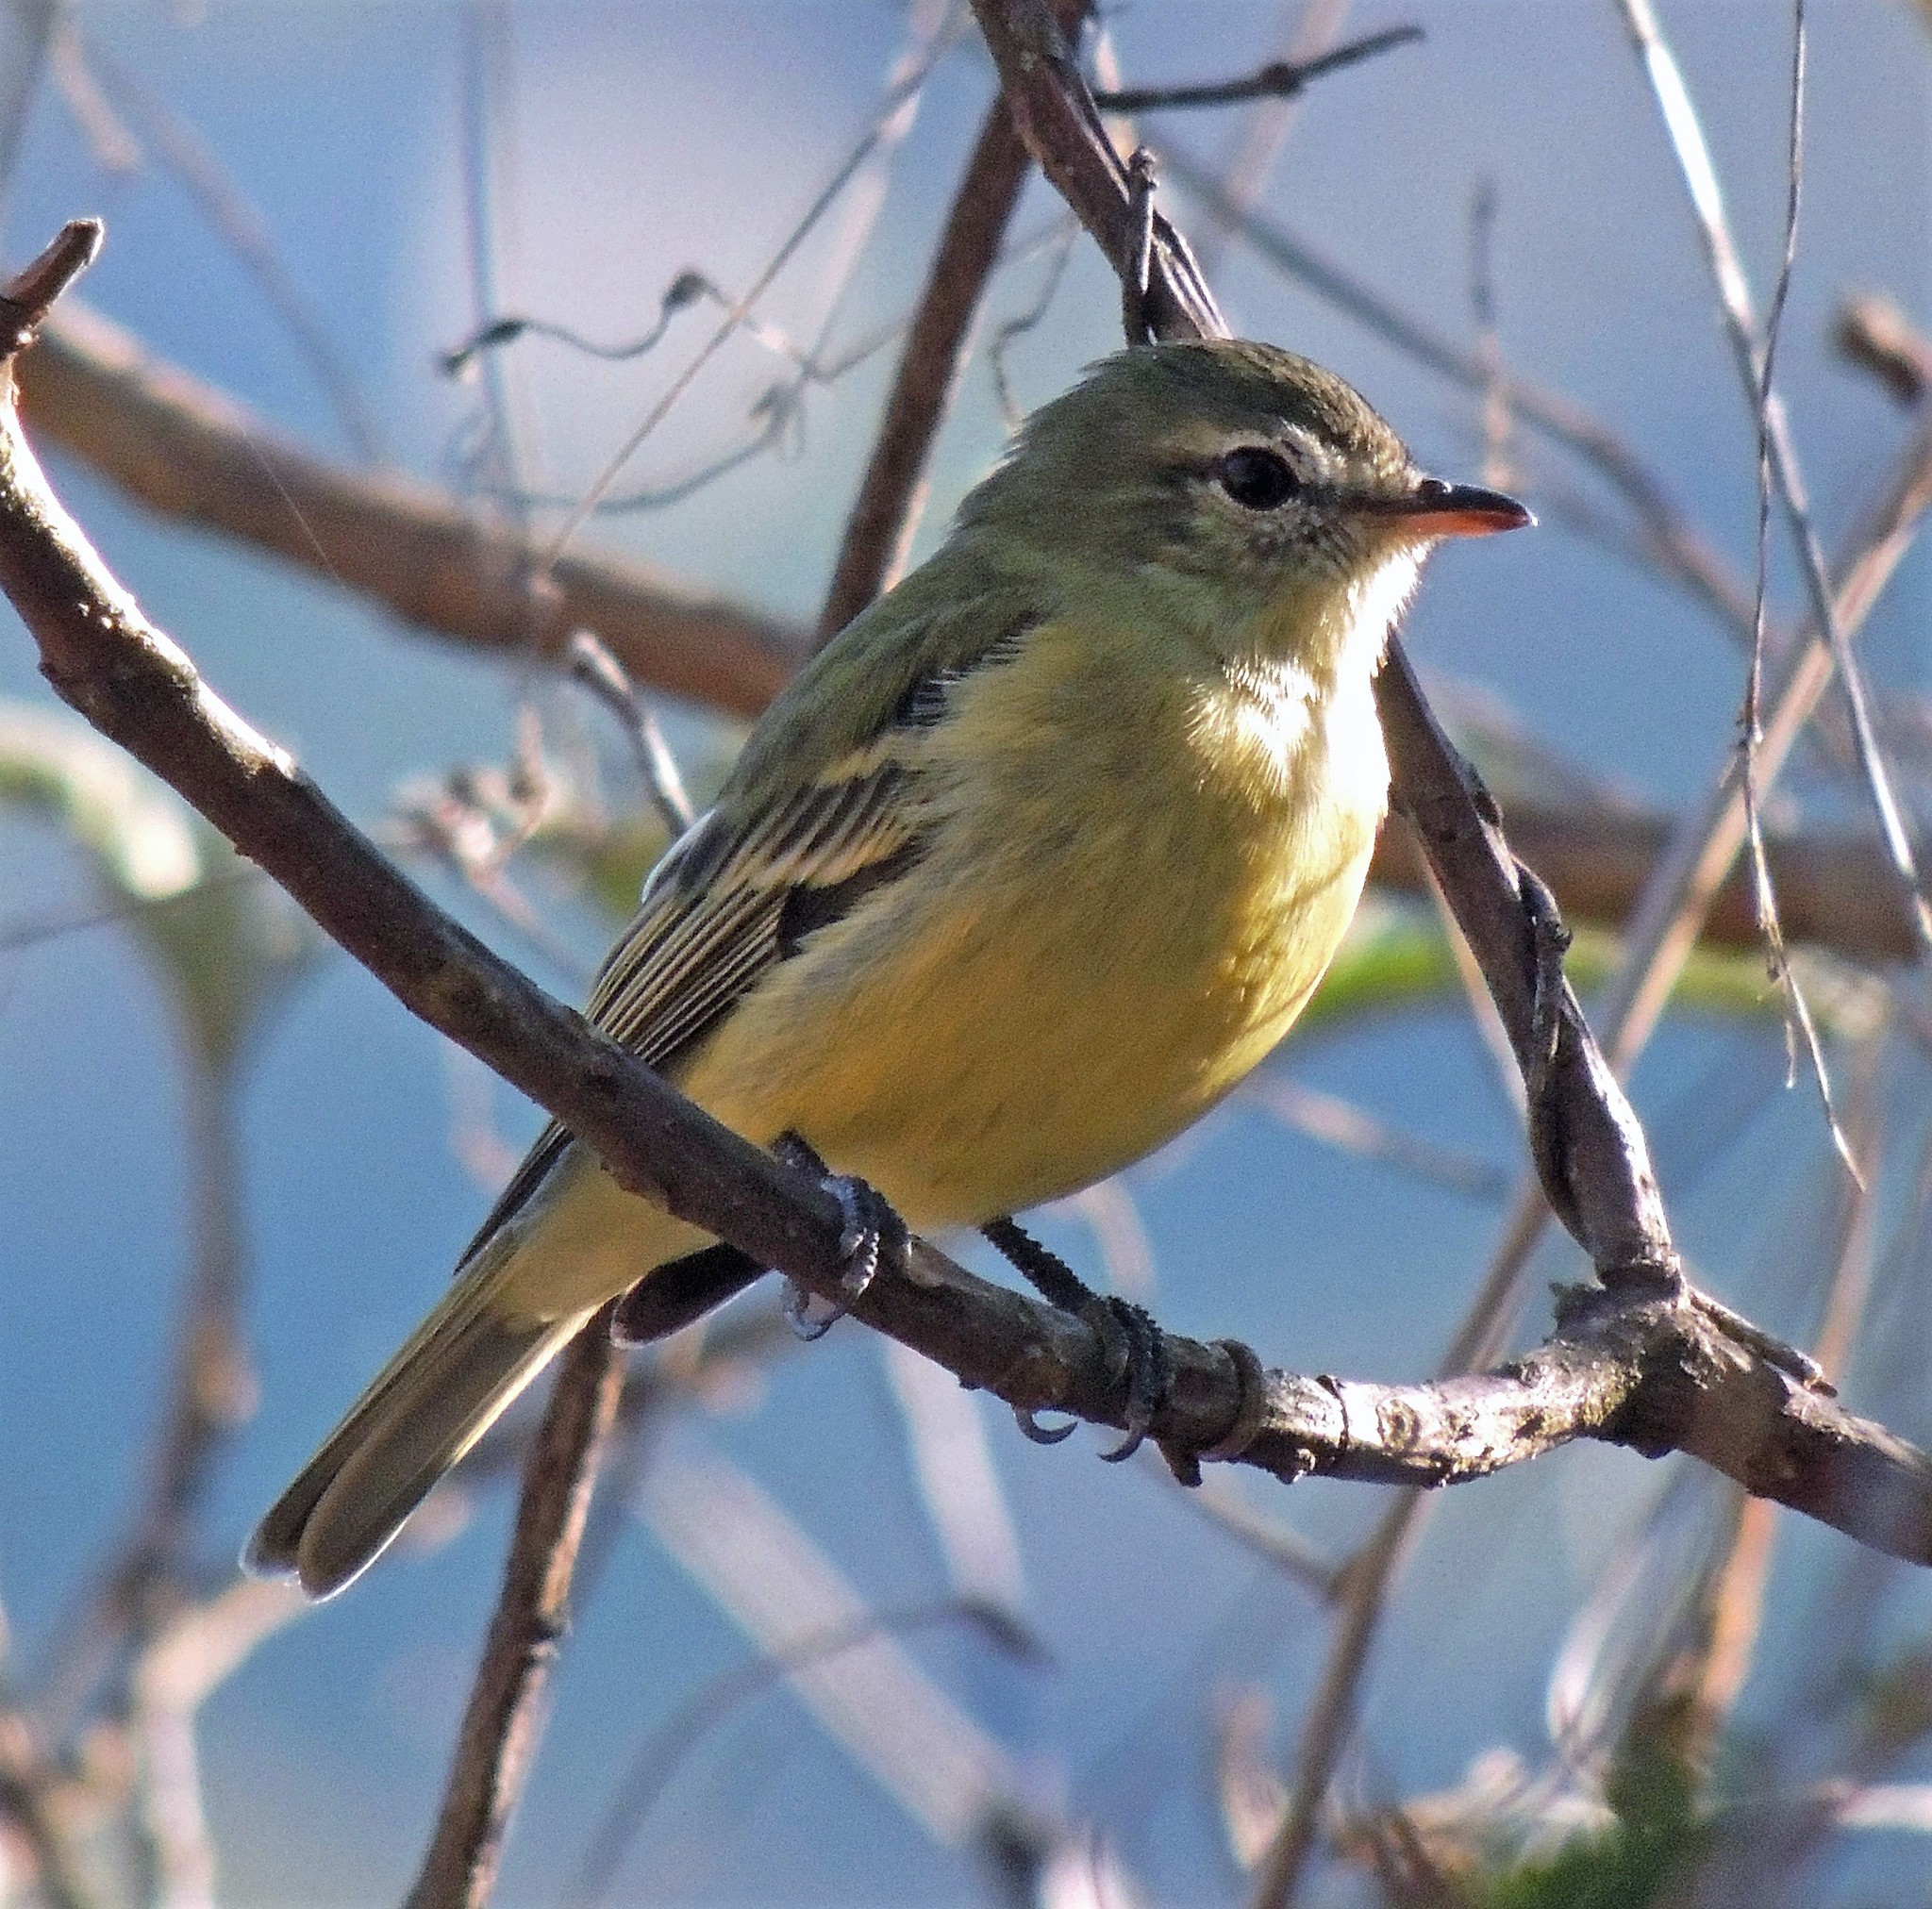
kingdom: Animalia
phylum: Chordata
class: Aves
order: Passeriformes
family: Tyrannidae
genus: Phyllomyias
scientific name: Phyllomyias burmeisteri
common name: Rough-legged tyrannulet
